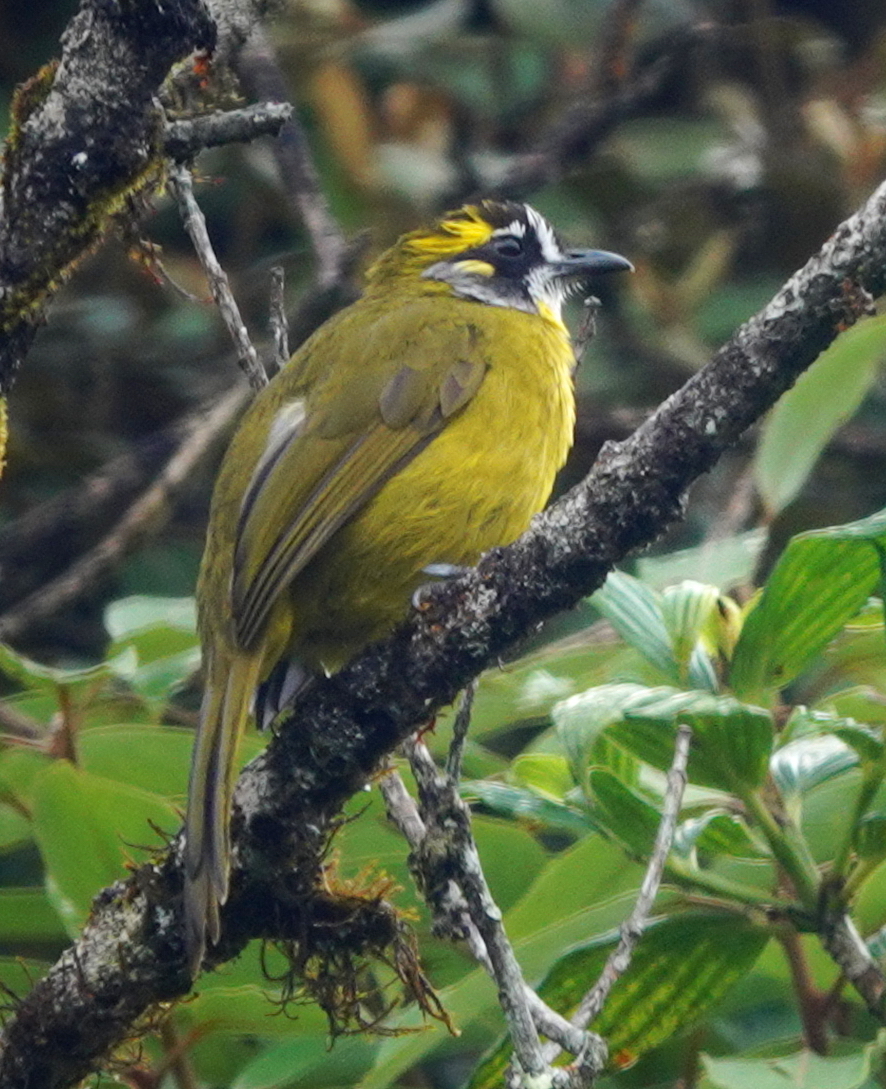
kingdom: Animalia
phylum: Chordata
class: Aves
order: Passeriformes
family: Pycnonotidae
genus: Pycnonotus
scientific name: Pycnonotus penicillatus
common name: Yellow-eared bulbul
